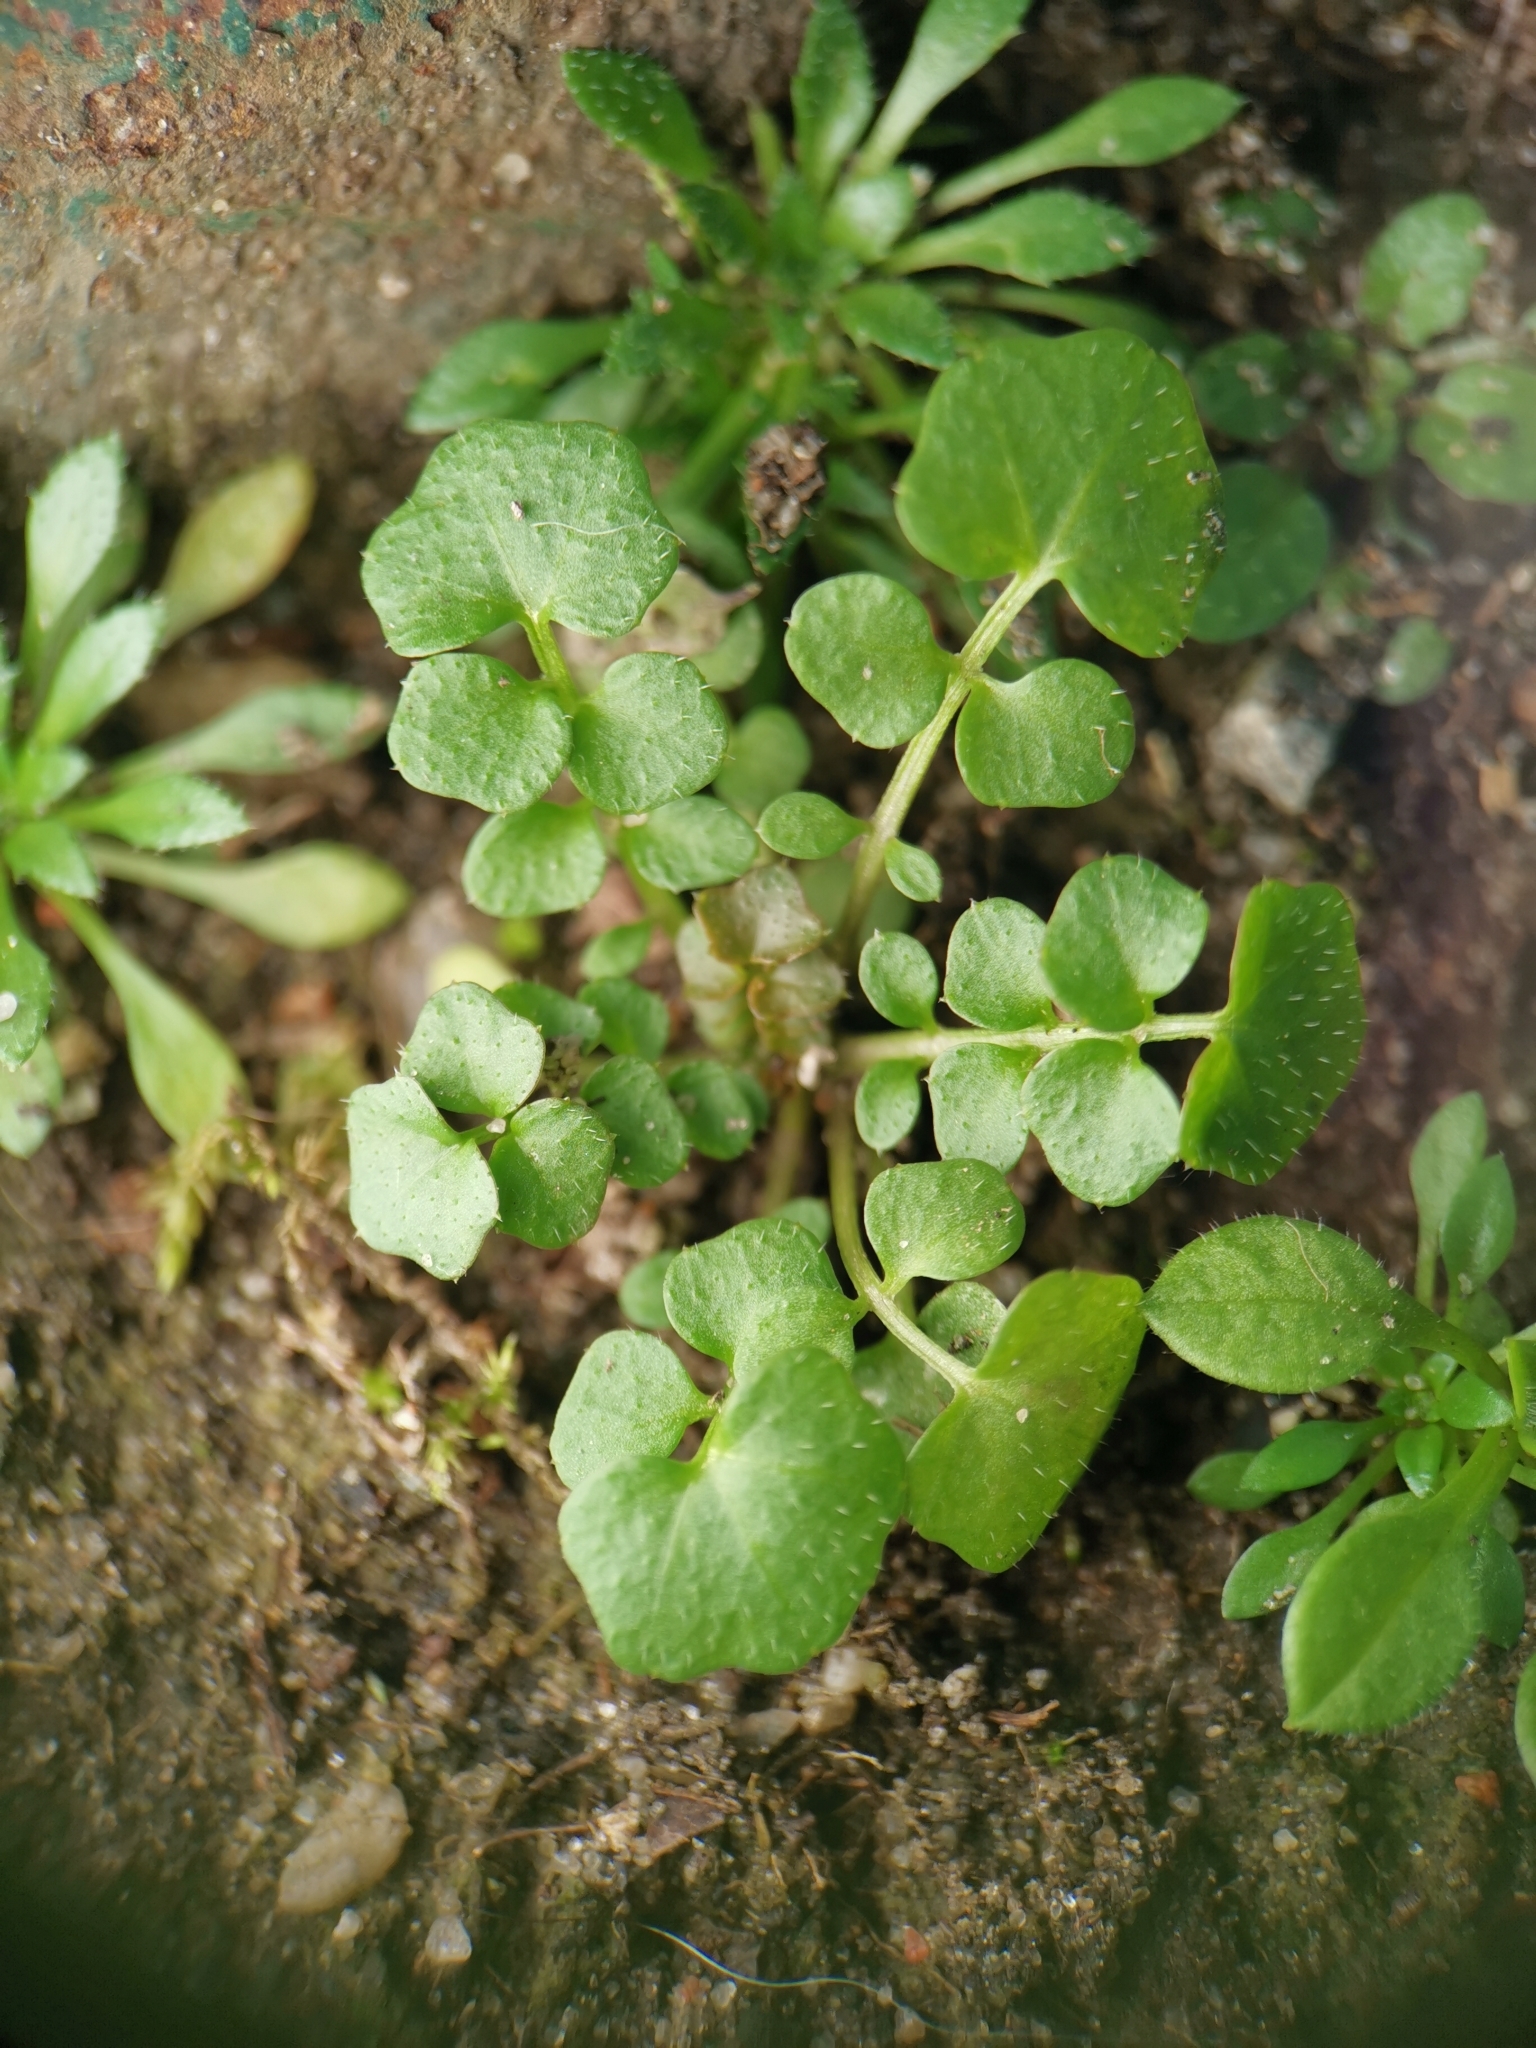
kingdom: Plantae
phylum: Tracheophyta
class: Magnoliopsida
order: Brassicales
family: Brassicaceae
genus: Cardamine
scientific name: Cardamine hirsuta
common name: Hairy bittercress
